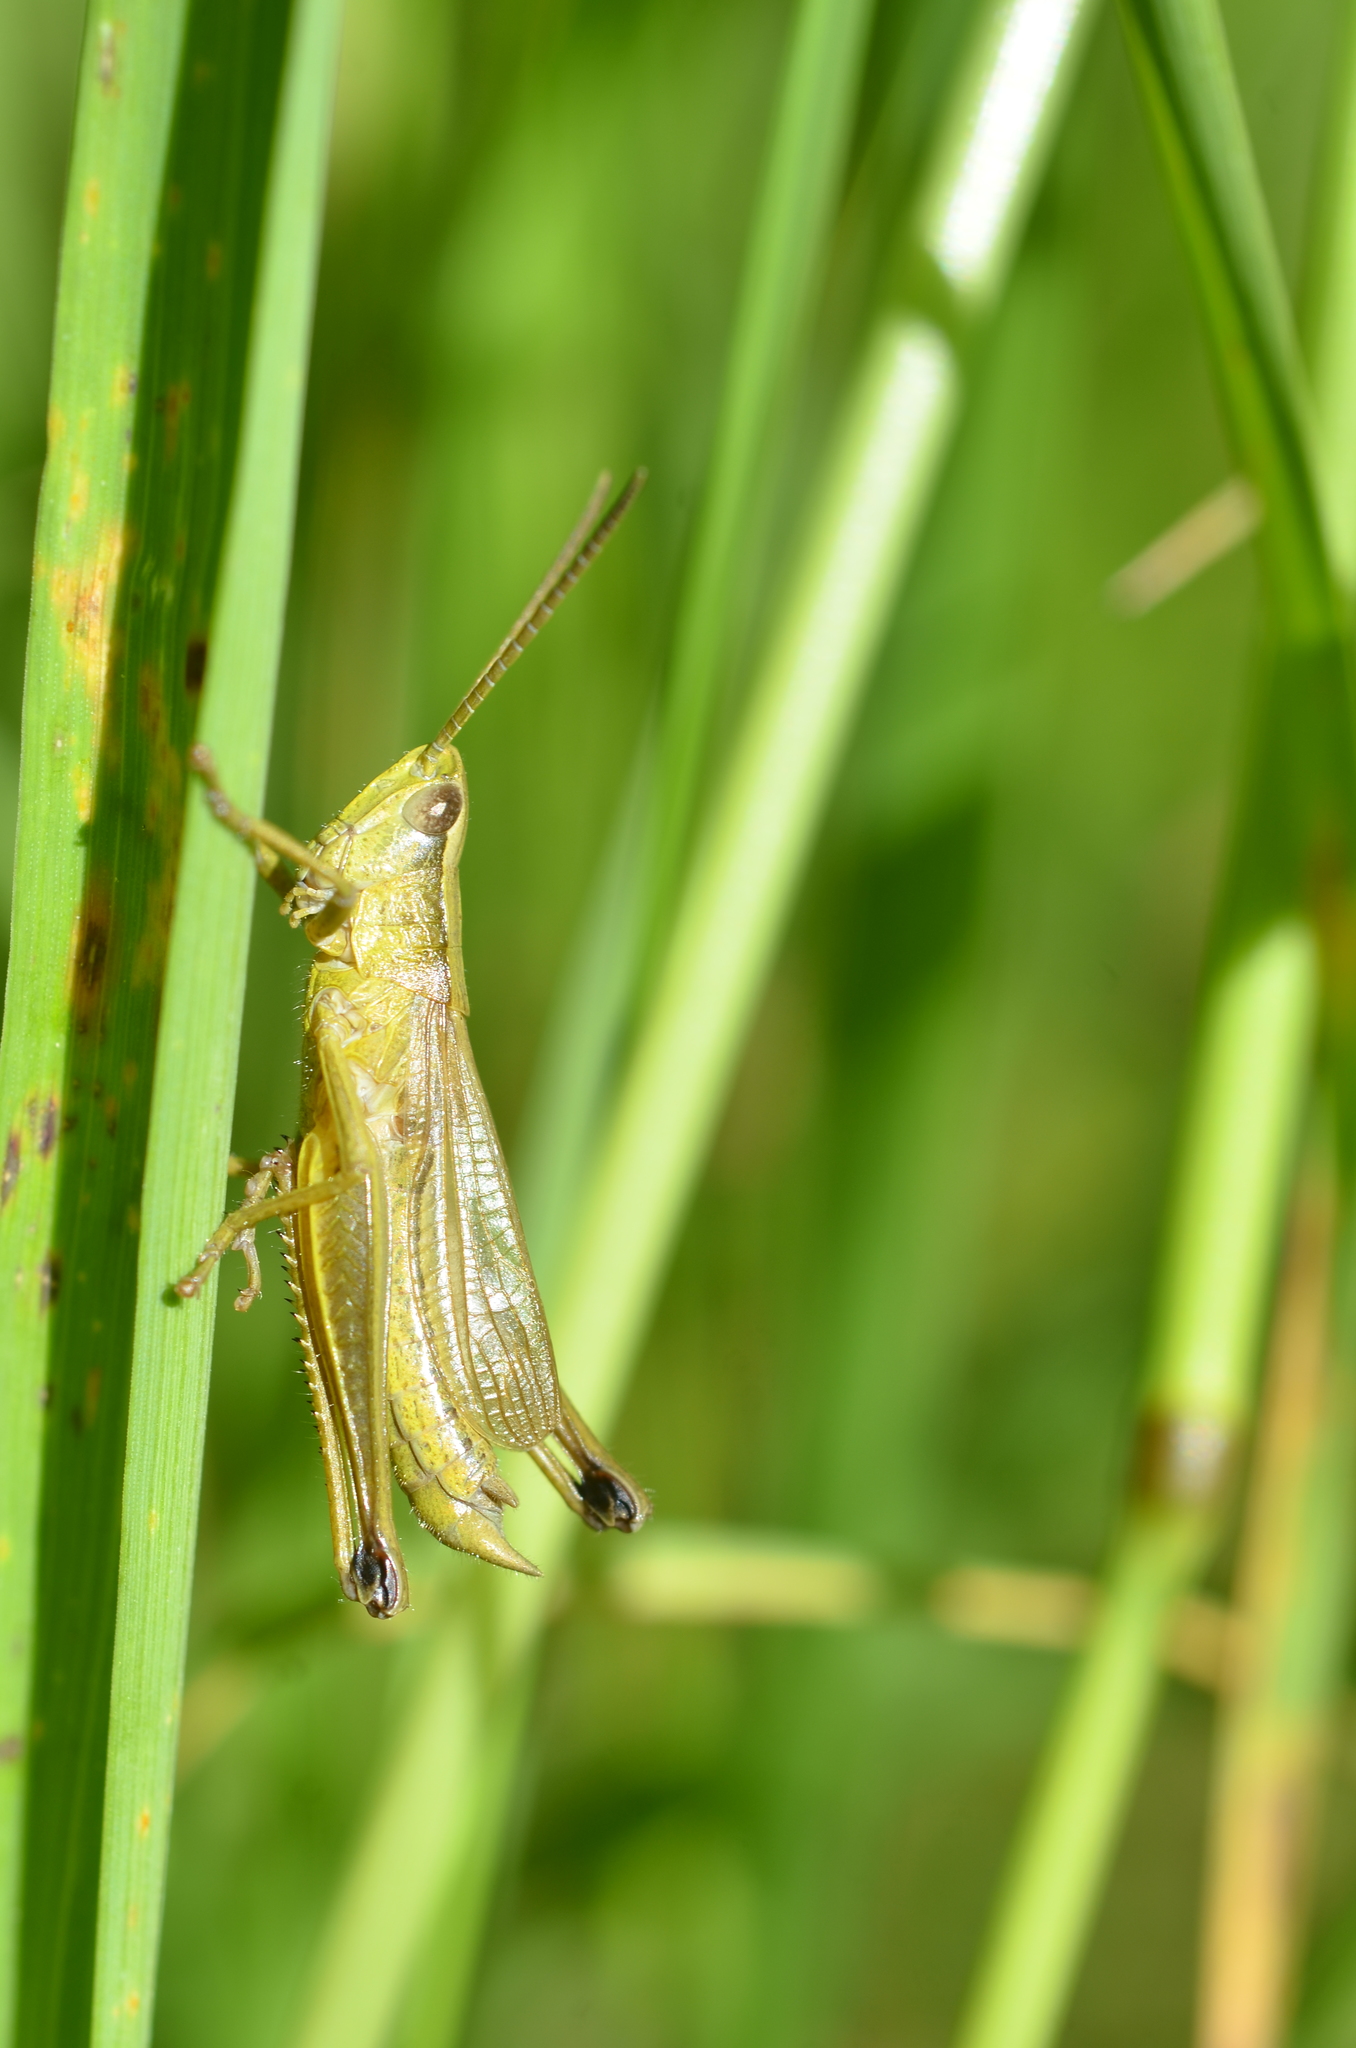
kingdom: Animalia
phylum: Arthropoda
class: Insecta
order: Orthoptera
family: Acrididae
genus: Chrysochraon
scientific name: Chrysochraon dispar
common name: Large gold grasshopper
